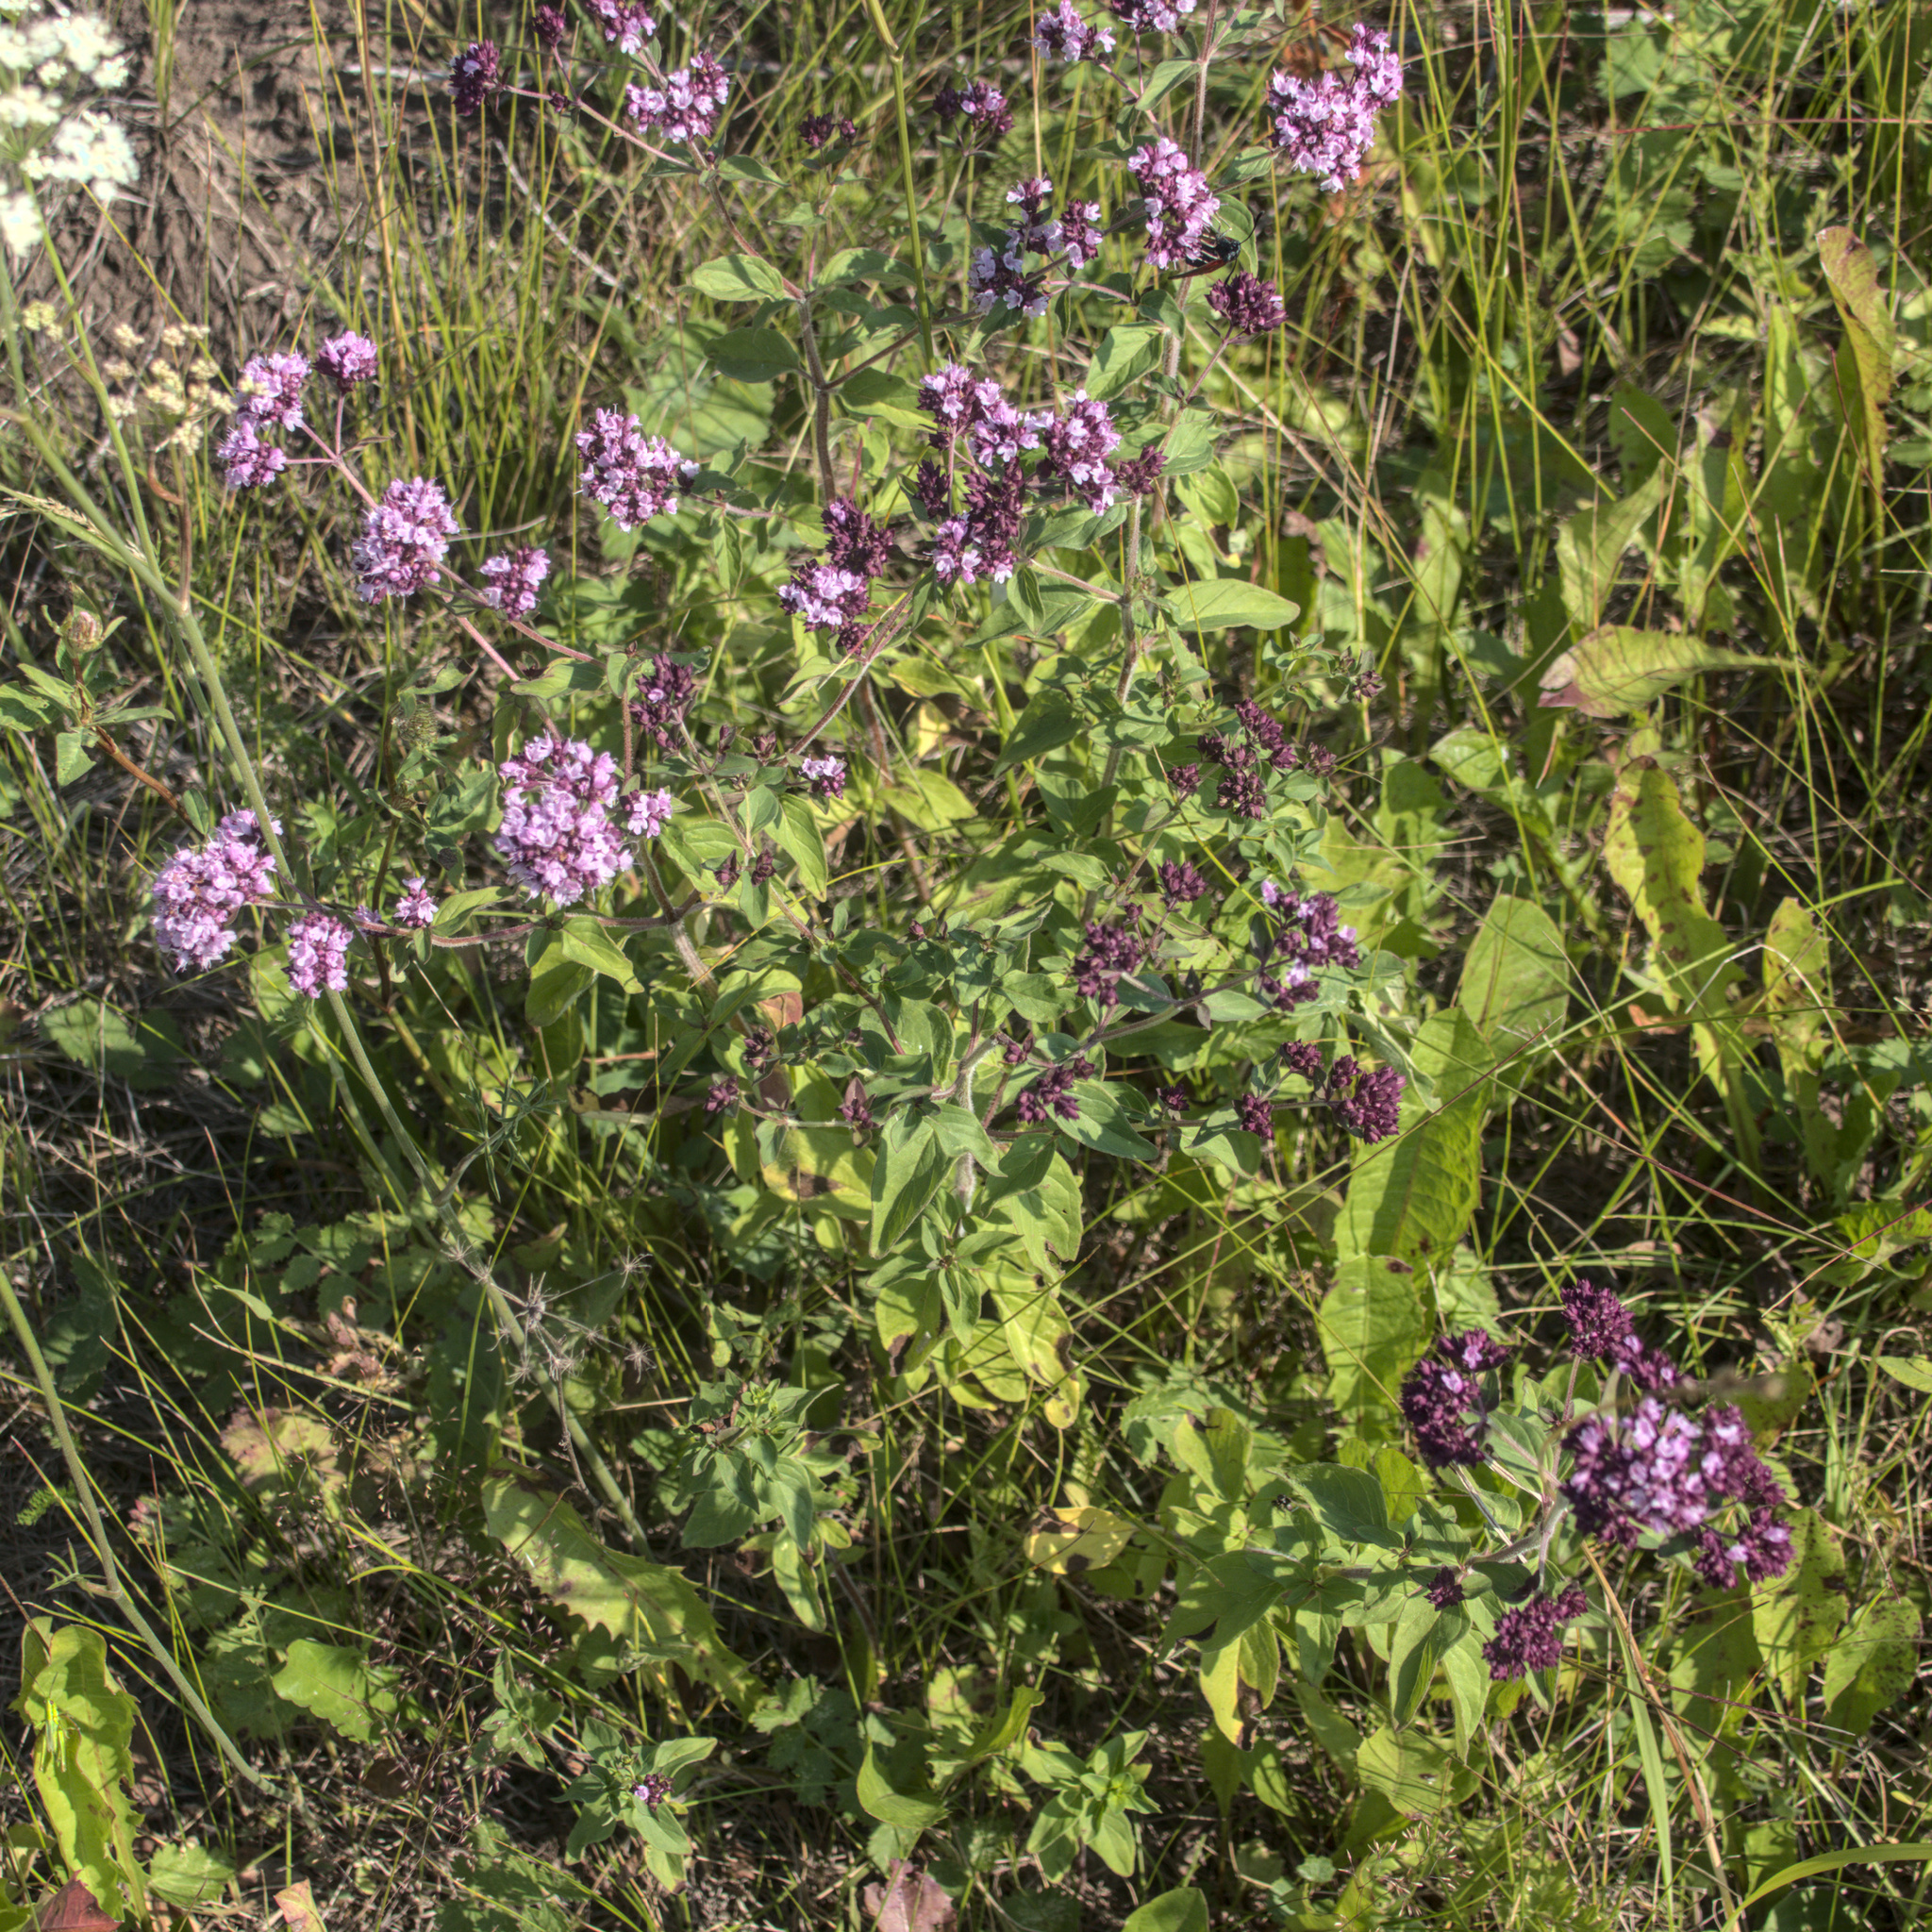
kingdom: Plantae
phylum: Tracheophyta
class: Magnoliopsida
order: Lamiales
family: Lamiaceae
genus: Origanum
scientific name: Origanum vulgare
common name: Wild marjoram
